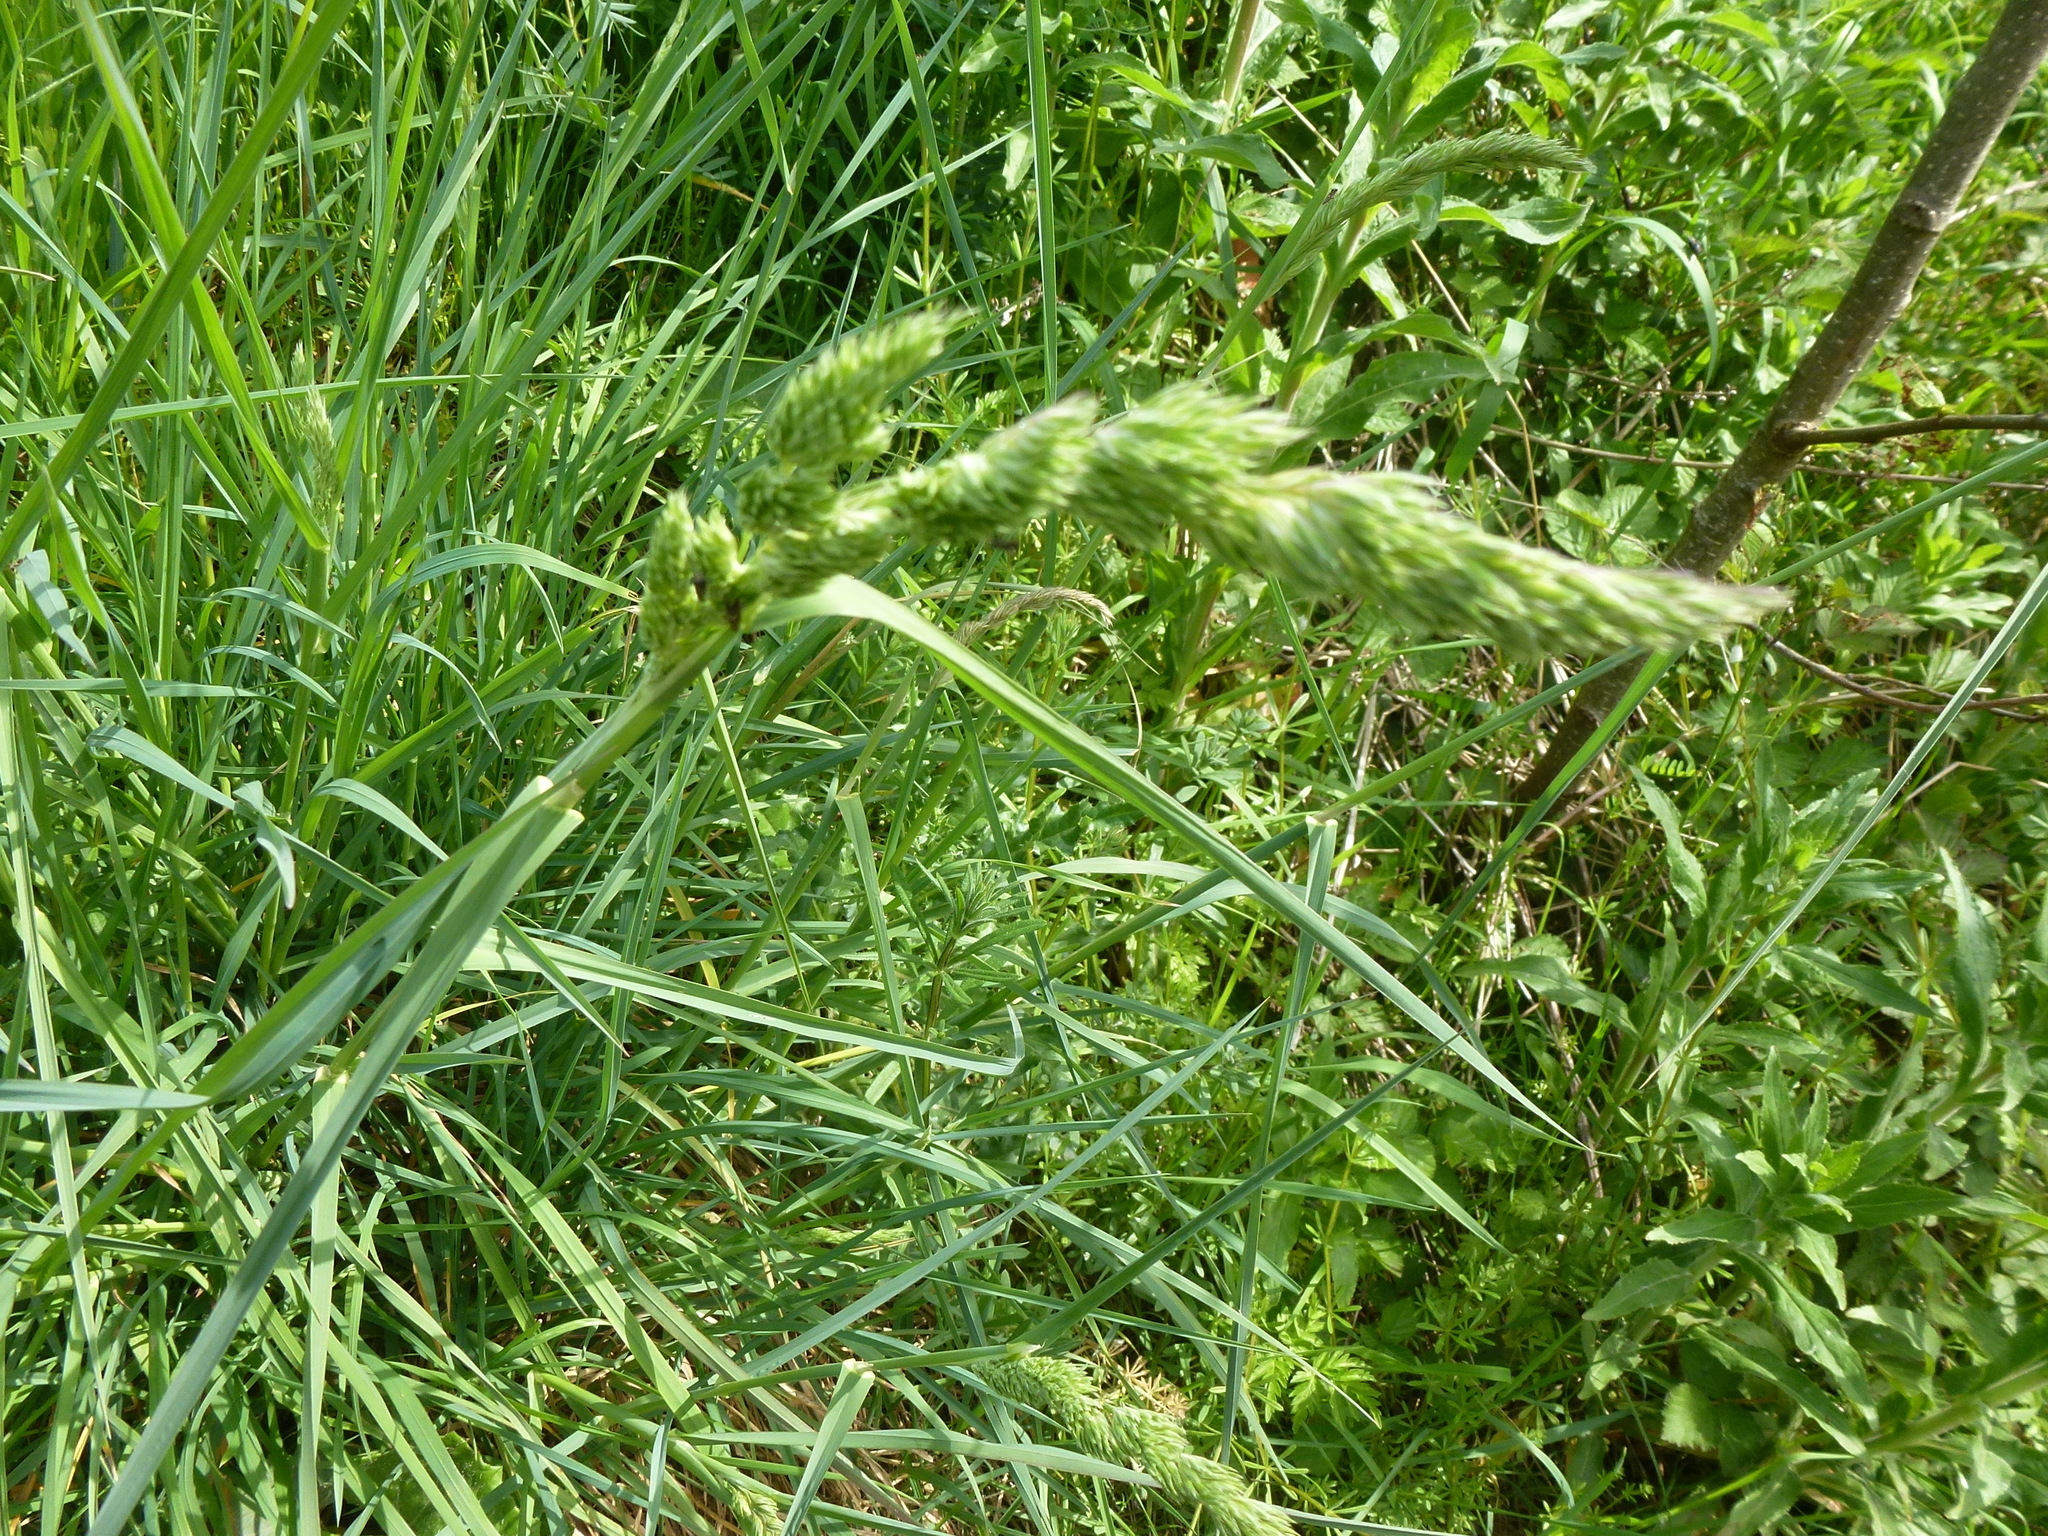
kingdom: Plantae
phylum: Tracheophyta
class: Liliopsida
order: Poales
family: Poaceae
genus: Dactylis
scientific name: Dactylis glomerata
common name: Orchardgrass
